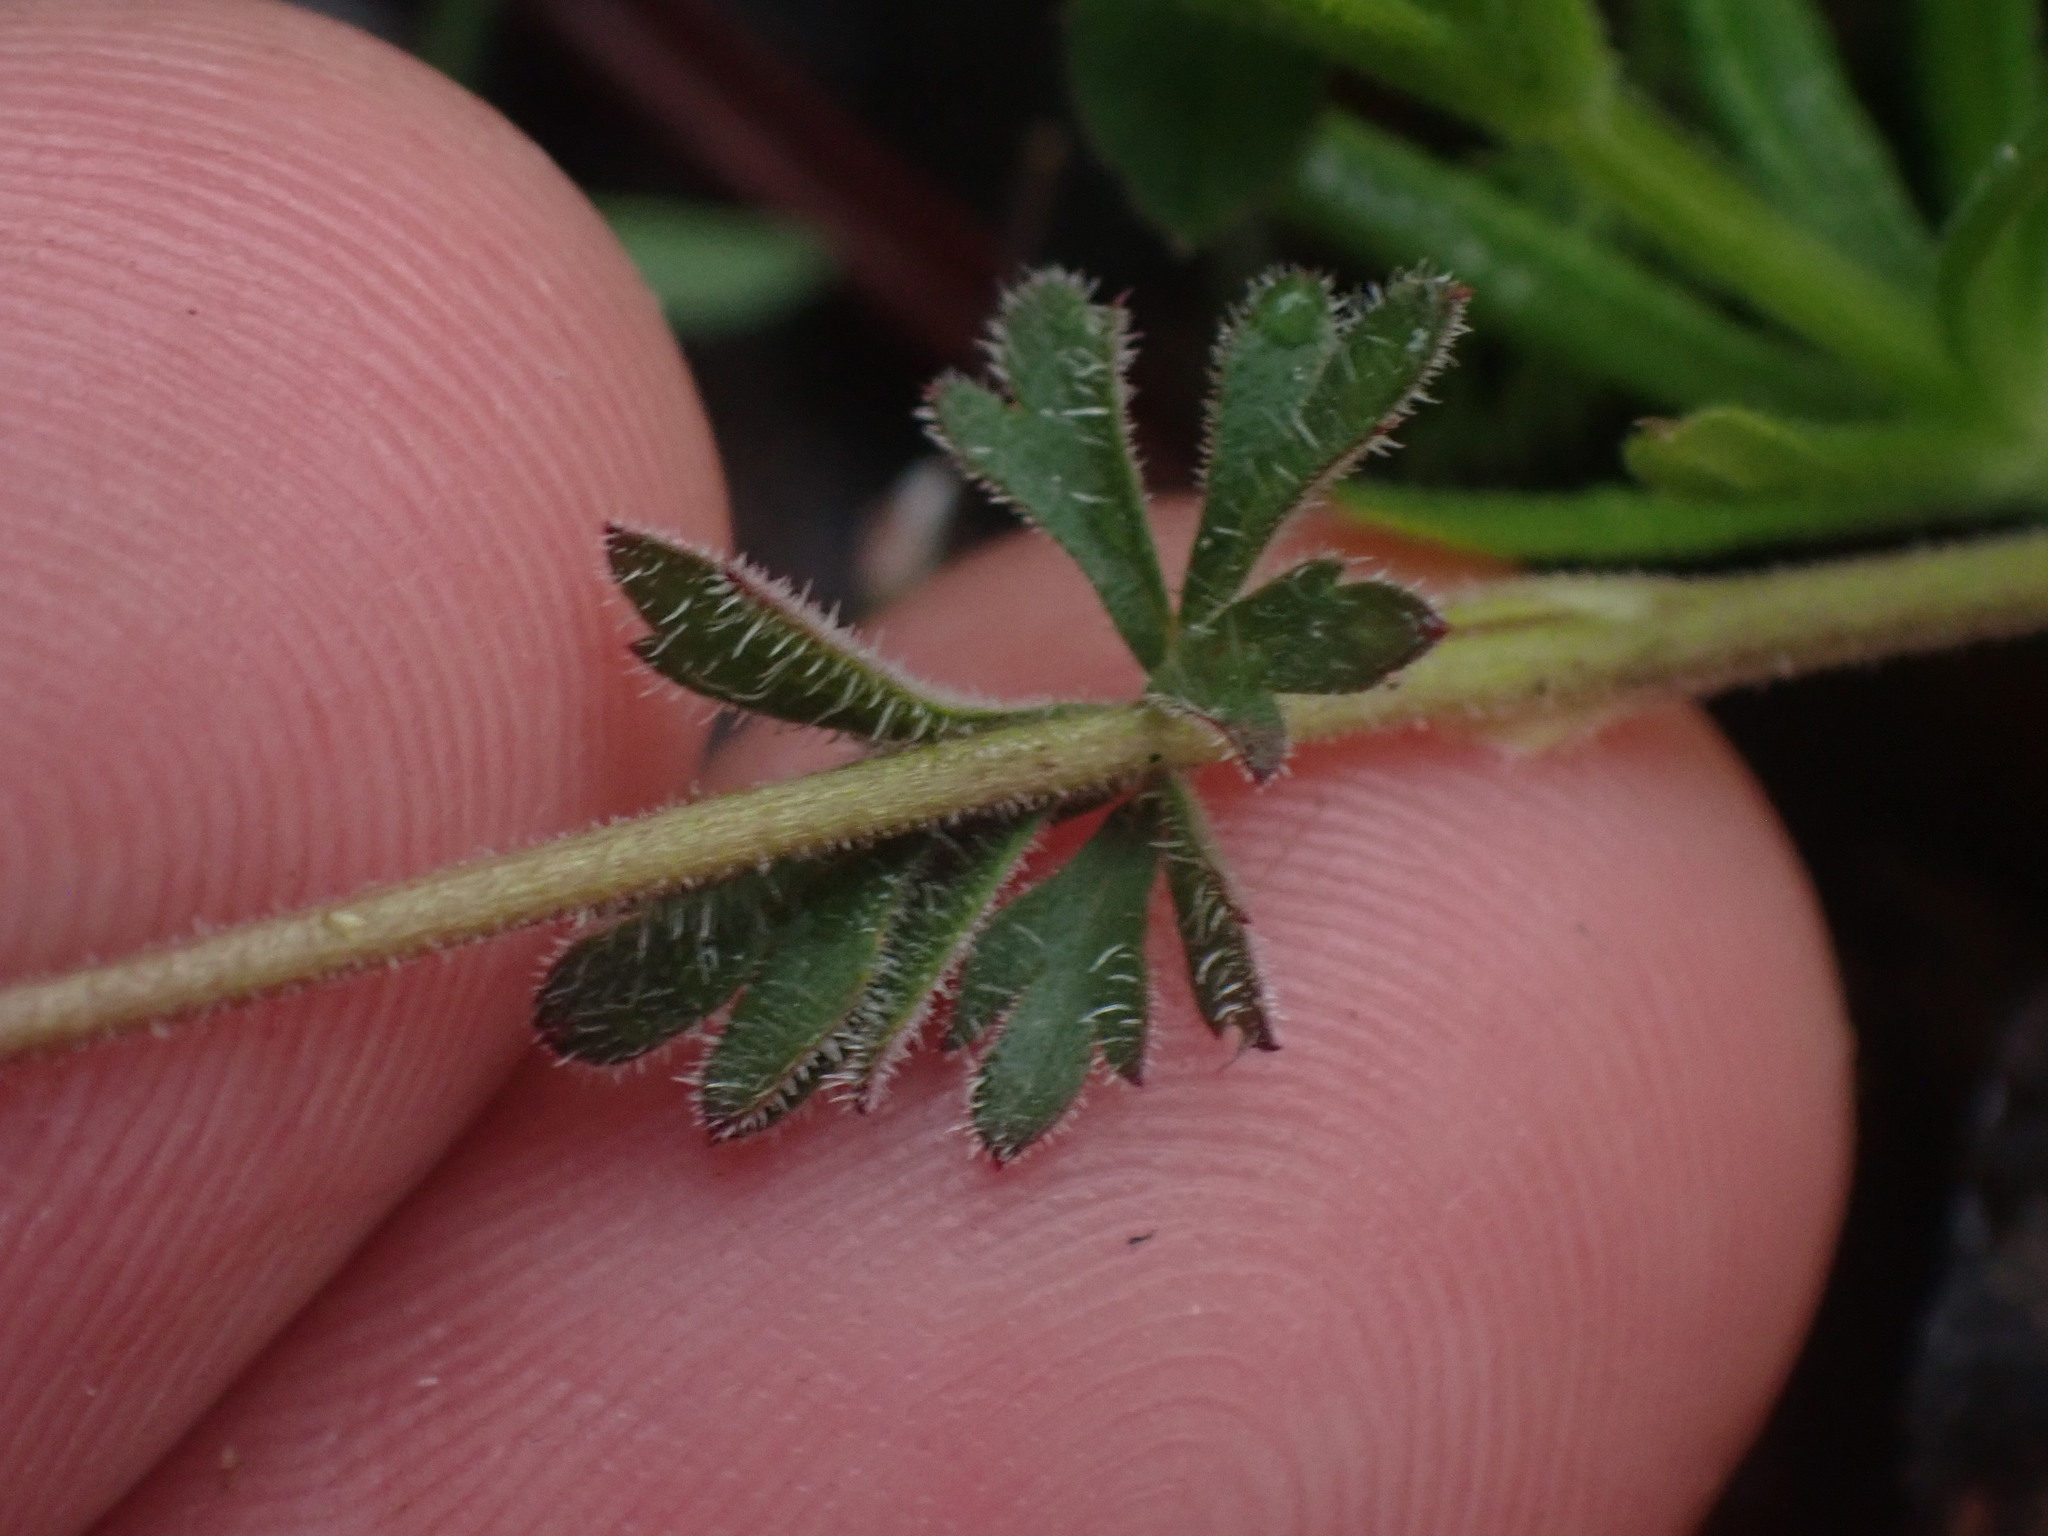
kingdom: Plantae
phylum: Tracheophyta
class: Magnoliopsida
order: Saxifragales
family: Saxifragaceae
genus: Lithophragma
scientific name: Lithophragma parviflorum
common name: Small-flowered fringe-cup
